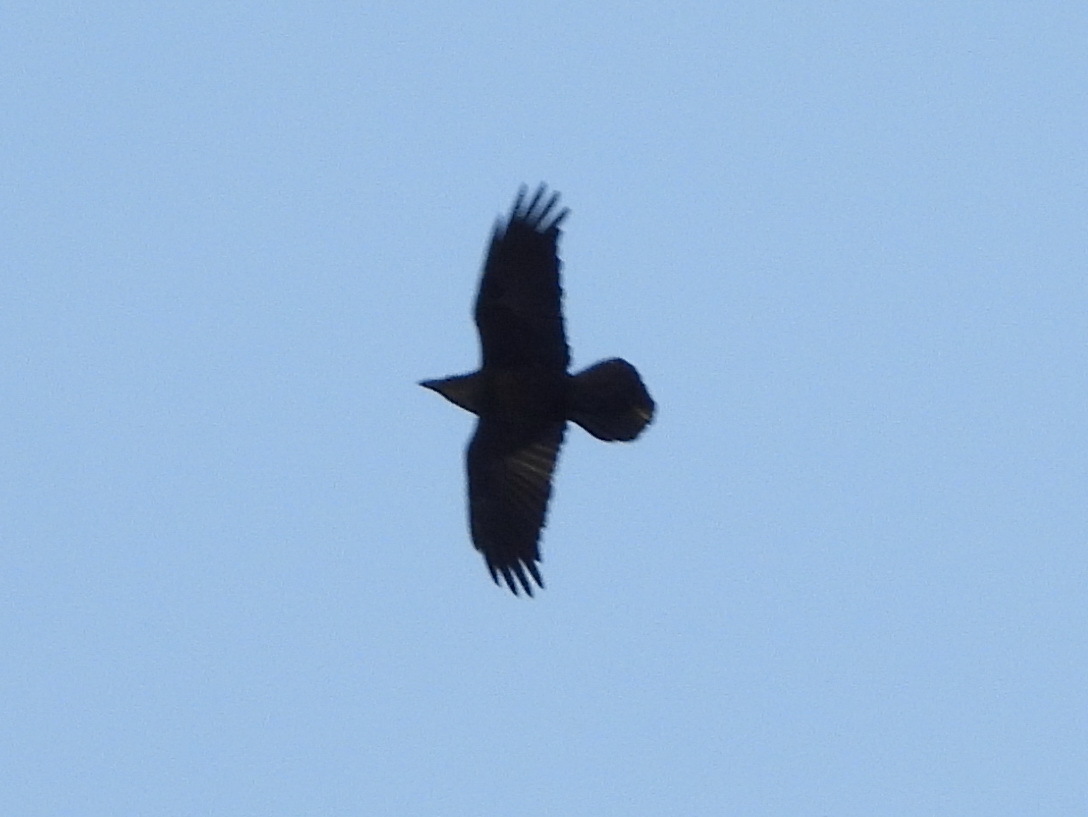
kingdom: Animalia
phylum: Chordata
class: Aves
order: Passeriformes
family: Corvidae
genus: Corvus
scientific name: Corvus corax
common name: Common raven
